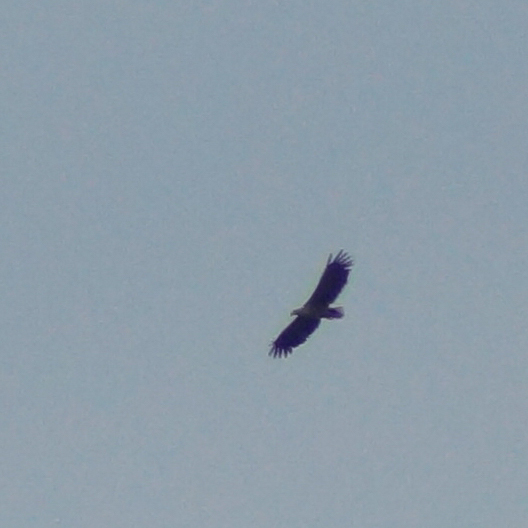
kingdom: Animalia
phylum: Chordata
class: Aves
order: Accipitriformes
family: Accipitridae
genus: Haliaeetus
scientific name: Haliaeetus albicilla
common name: White-tailed eagle
